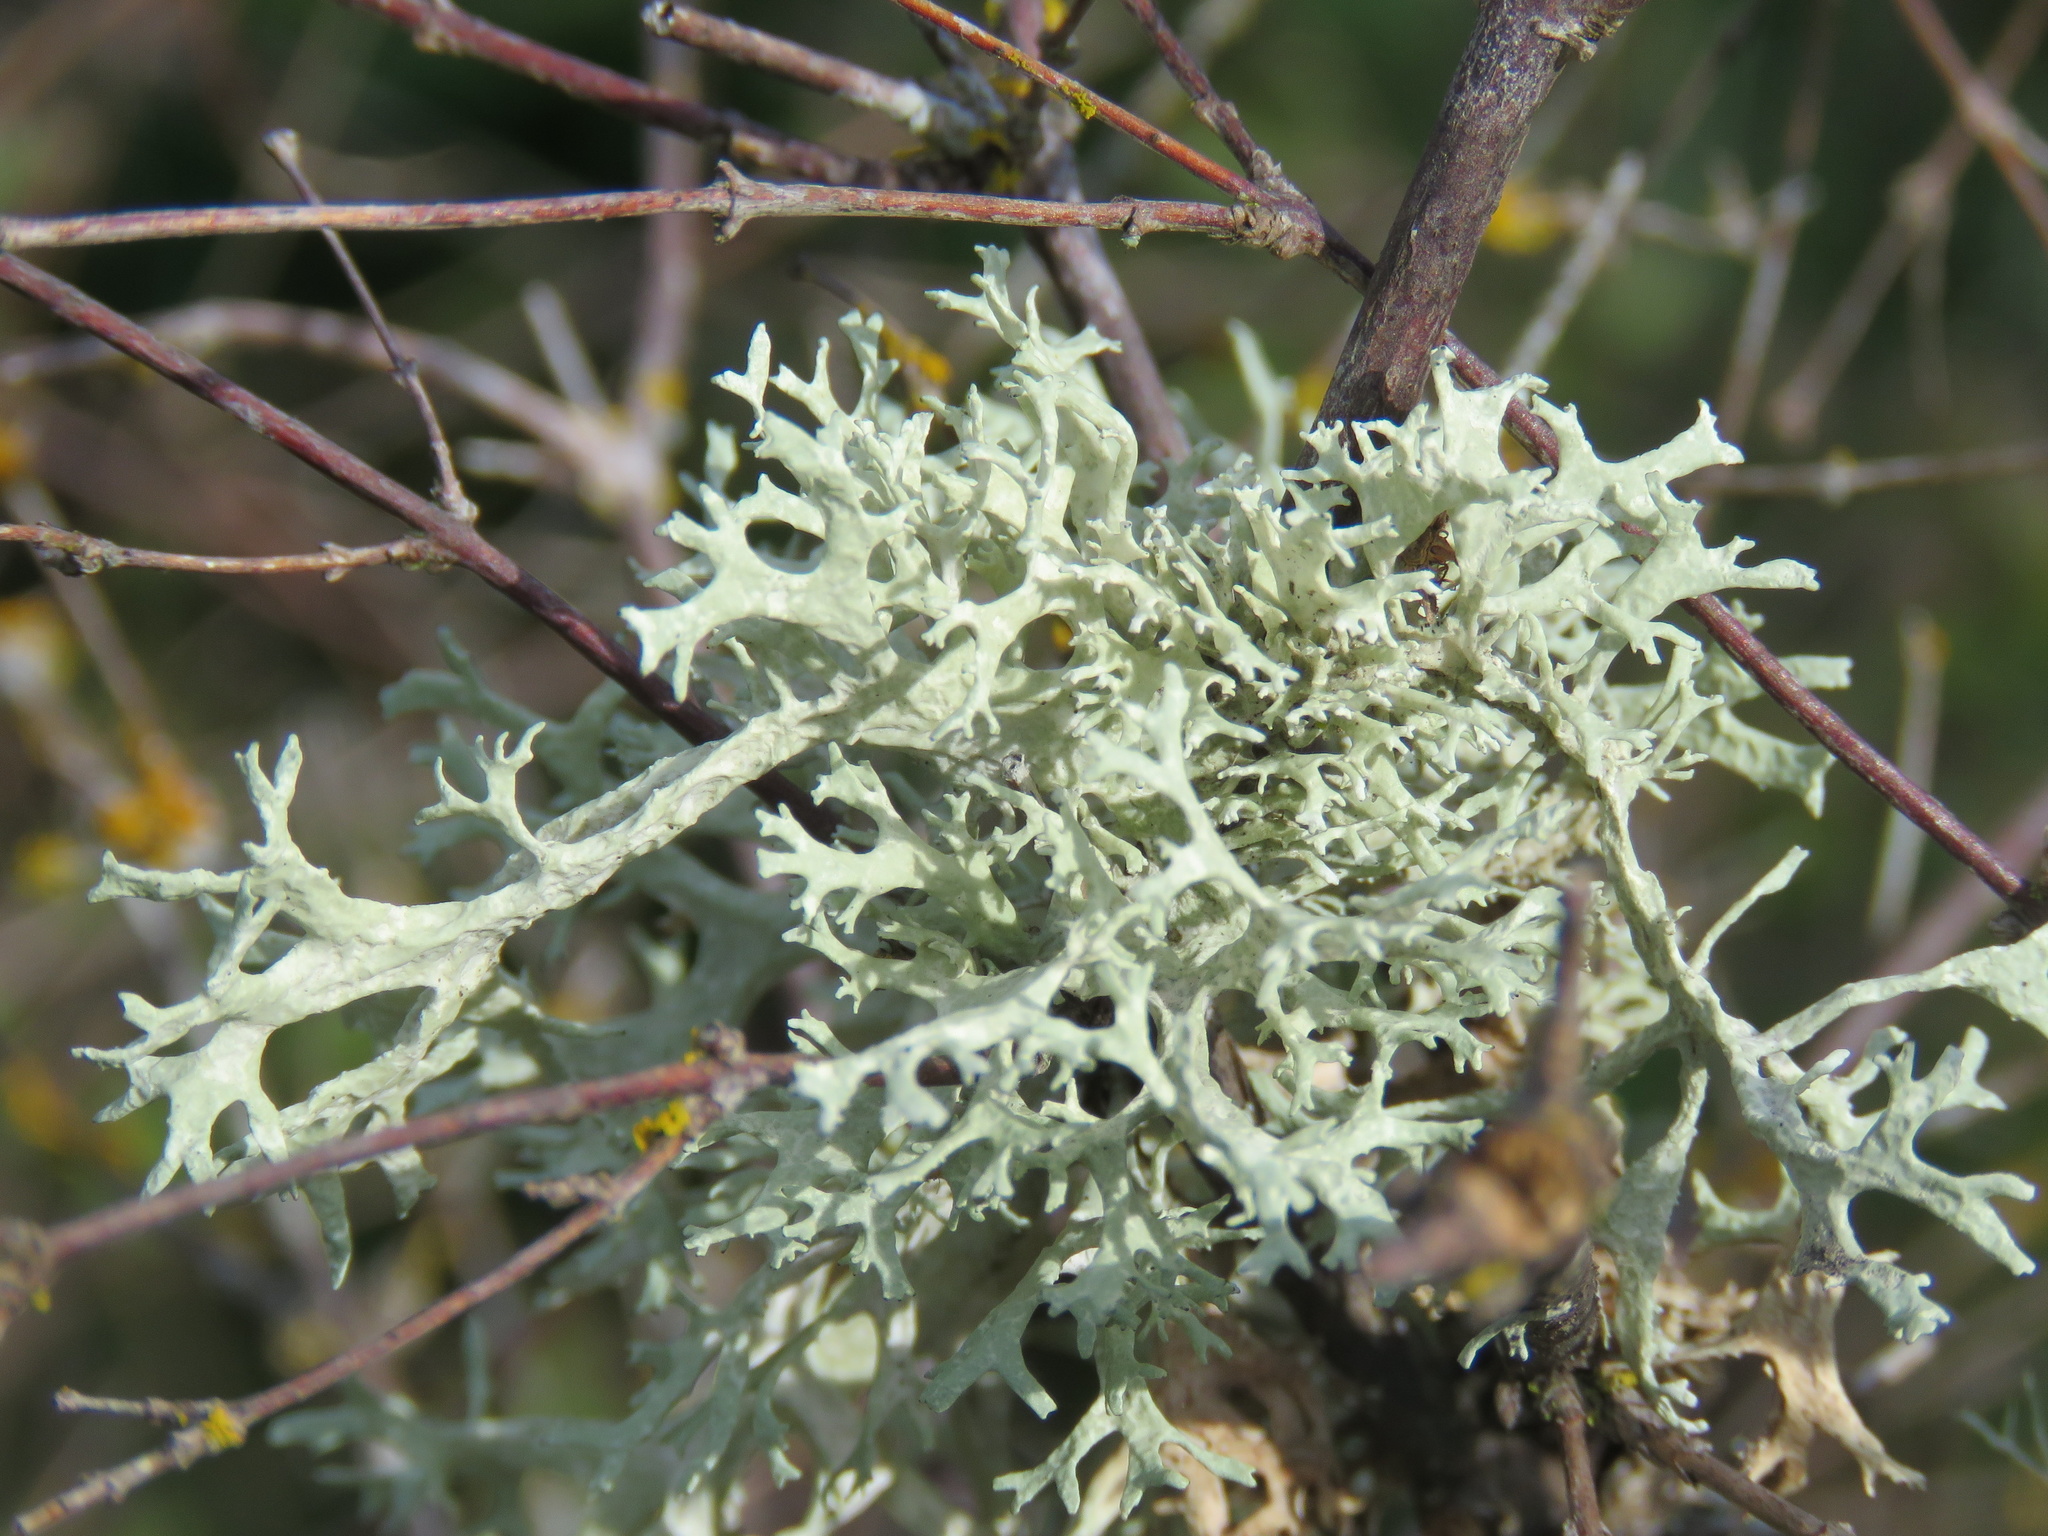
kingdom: Fungi
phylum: Ascomycota
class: Lecanoromycetes
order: Lecanorales
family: Parmeliaceae
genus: Evernia
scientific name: Evernia prunastri
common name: Oak moss
